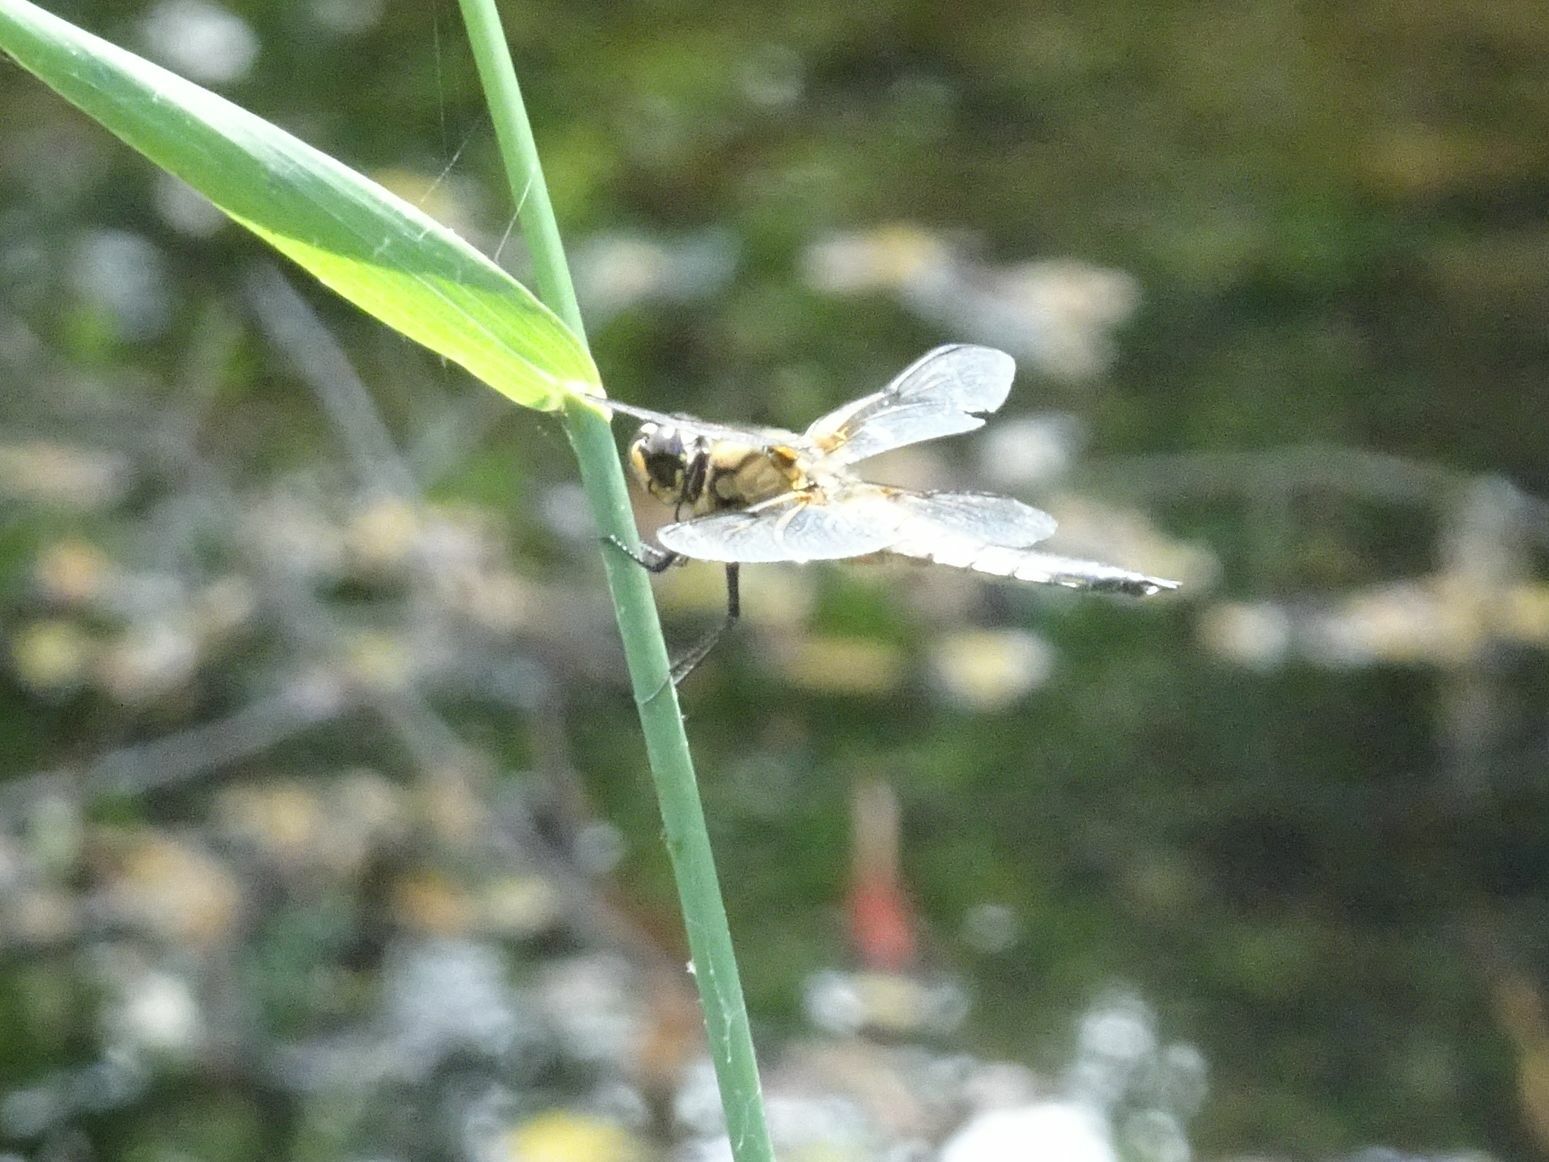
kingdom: Animalia
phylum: Arthropoda
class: Insecta
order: Odonata
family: Libellulidae
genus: Libellula
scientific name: Libellula quadrimaculata
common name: Four-spotted chaser
